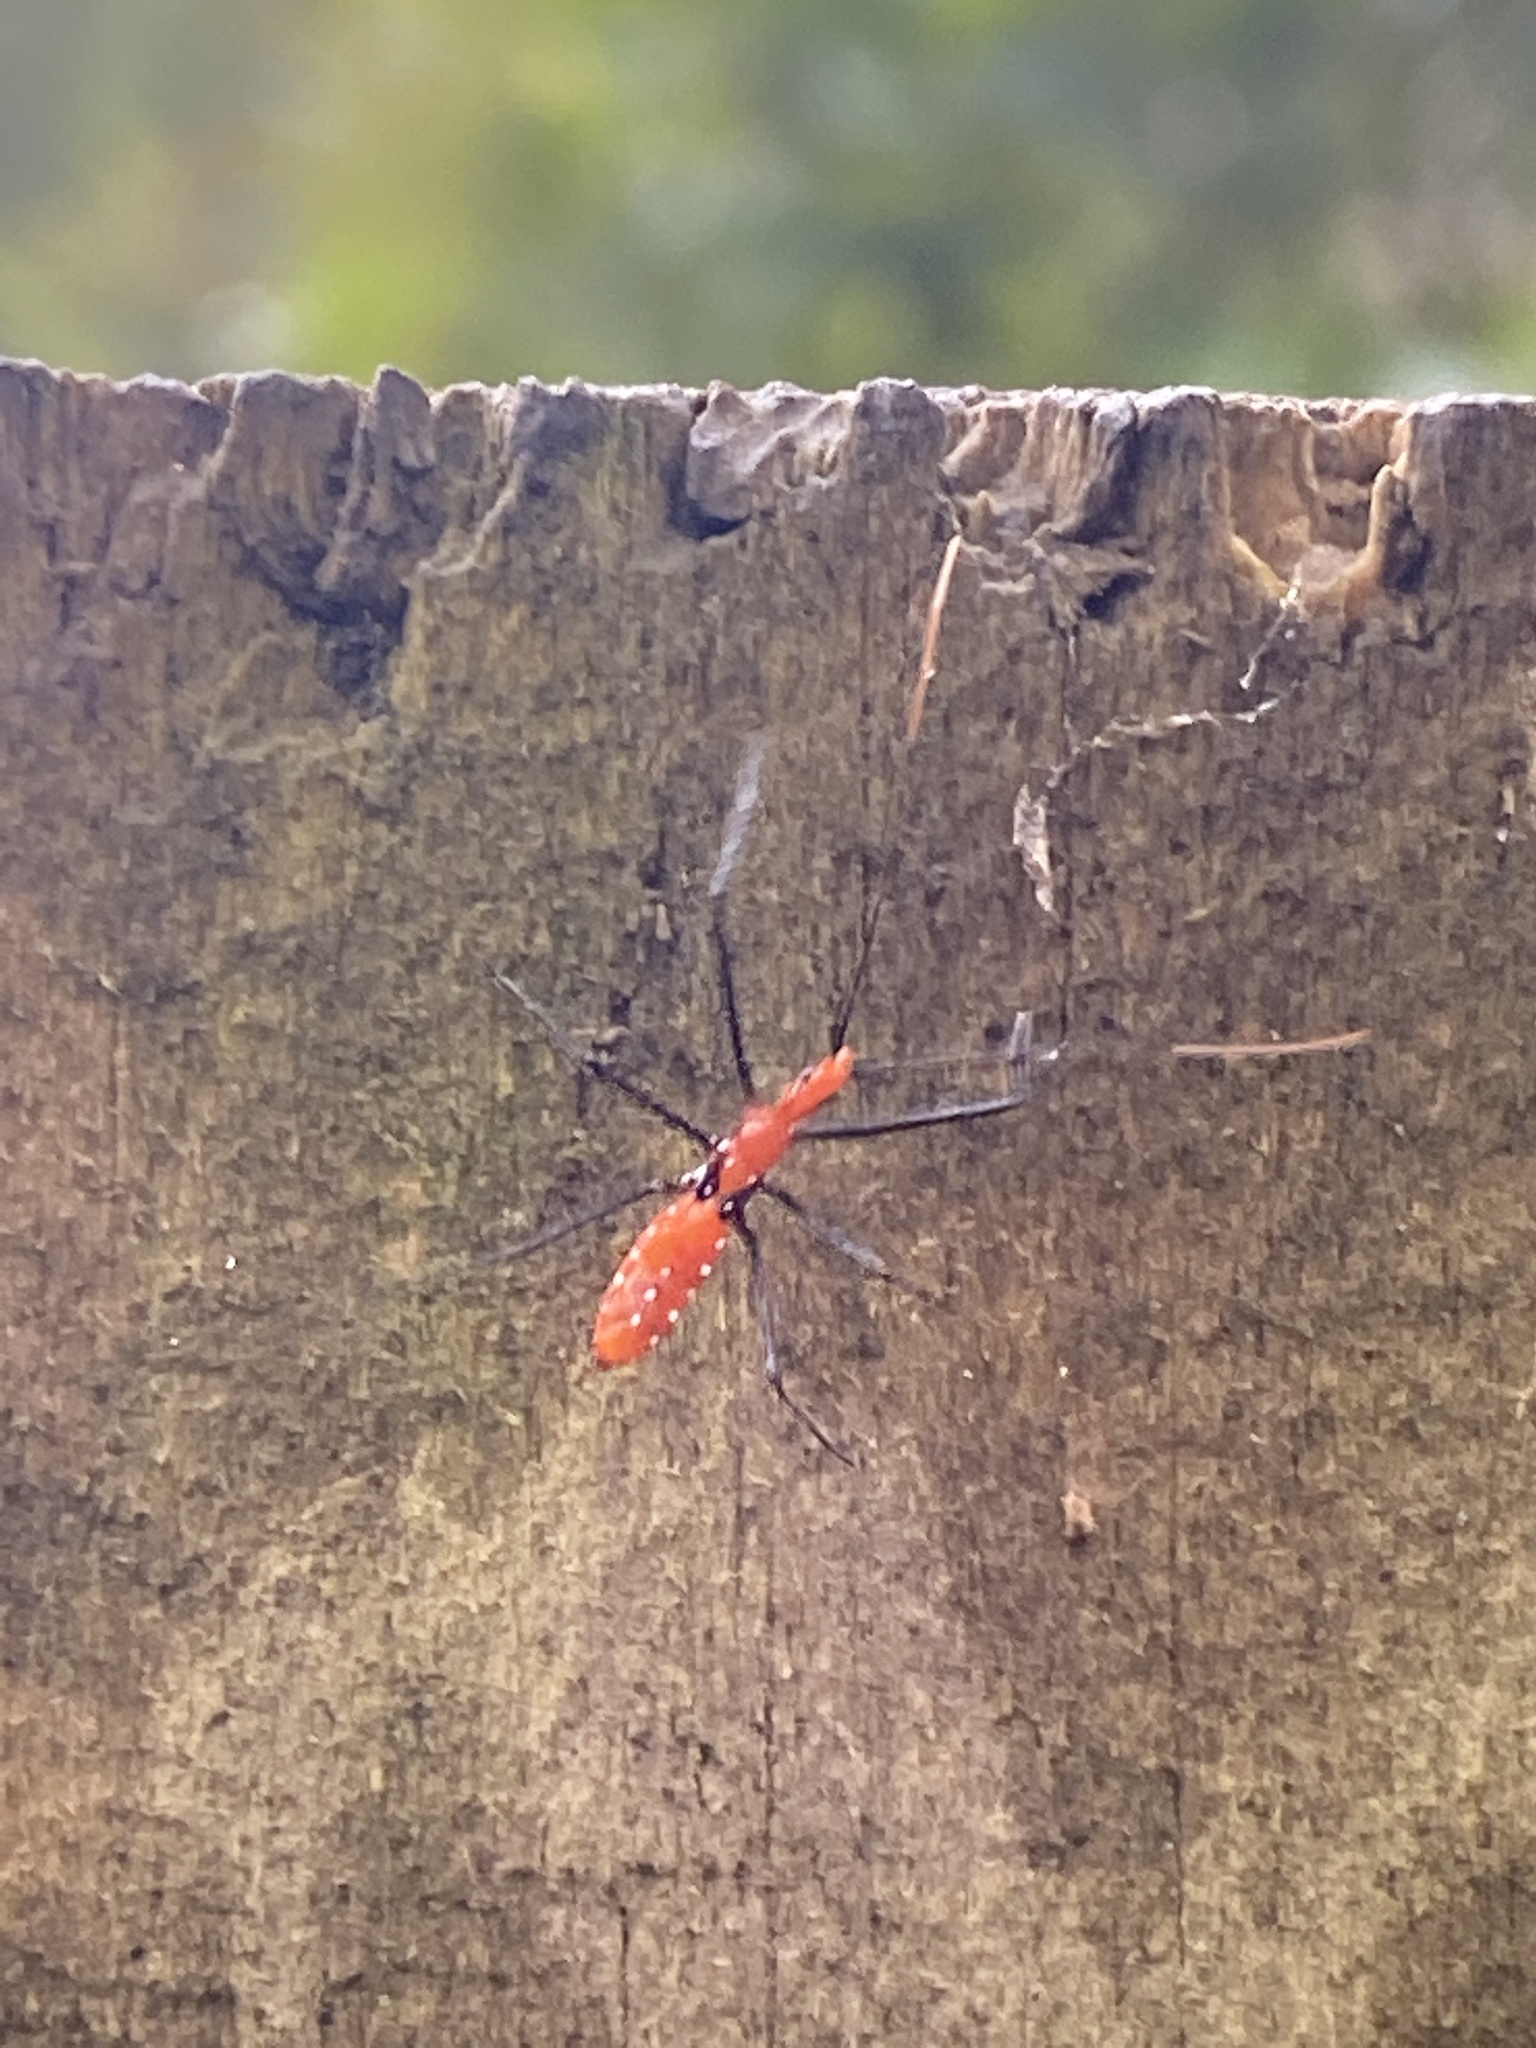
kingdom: Animalia
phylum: Arthropoda
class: Insecta
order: Hemiptera
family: Reduviidae
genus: Zelus
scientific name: Zelus longipes
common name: Milkweed assassin bug
